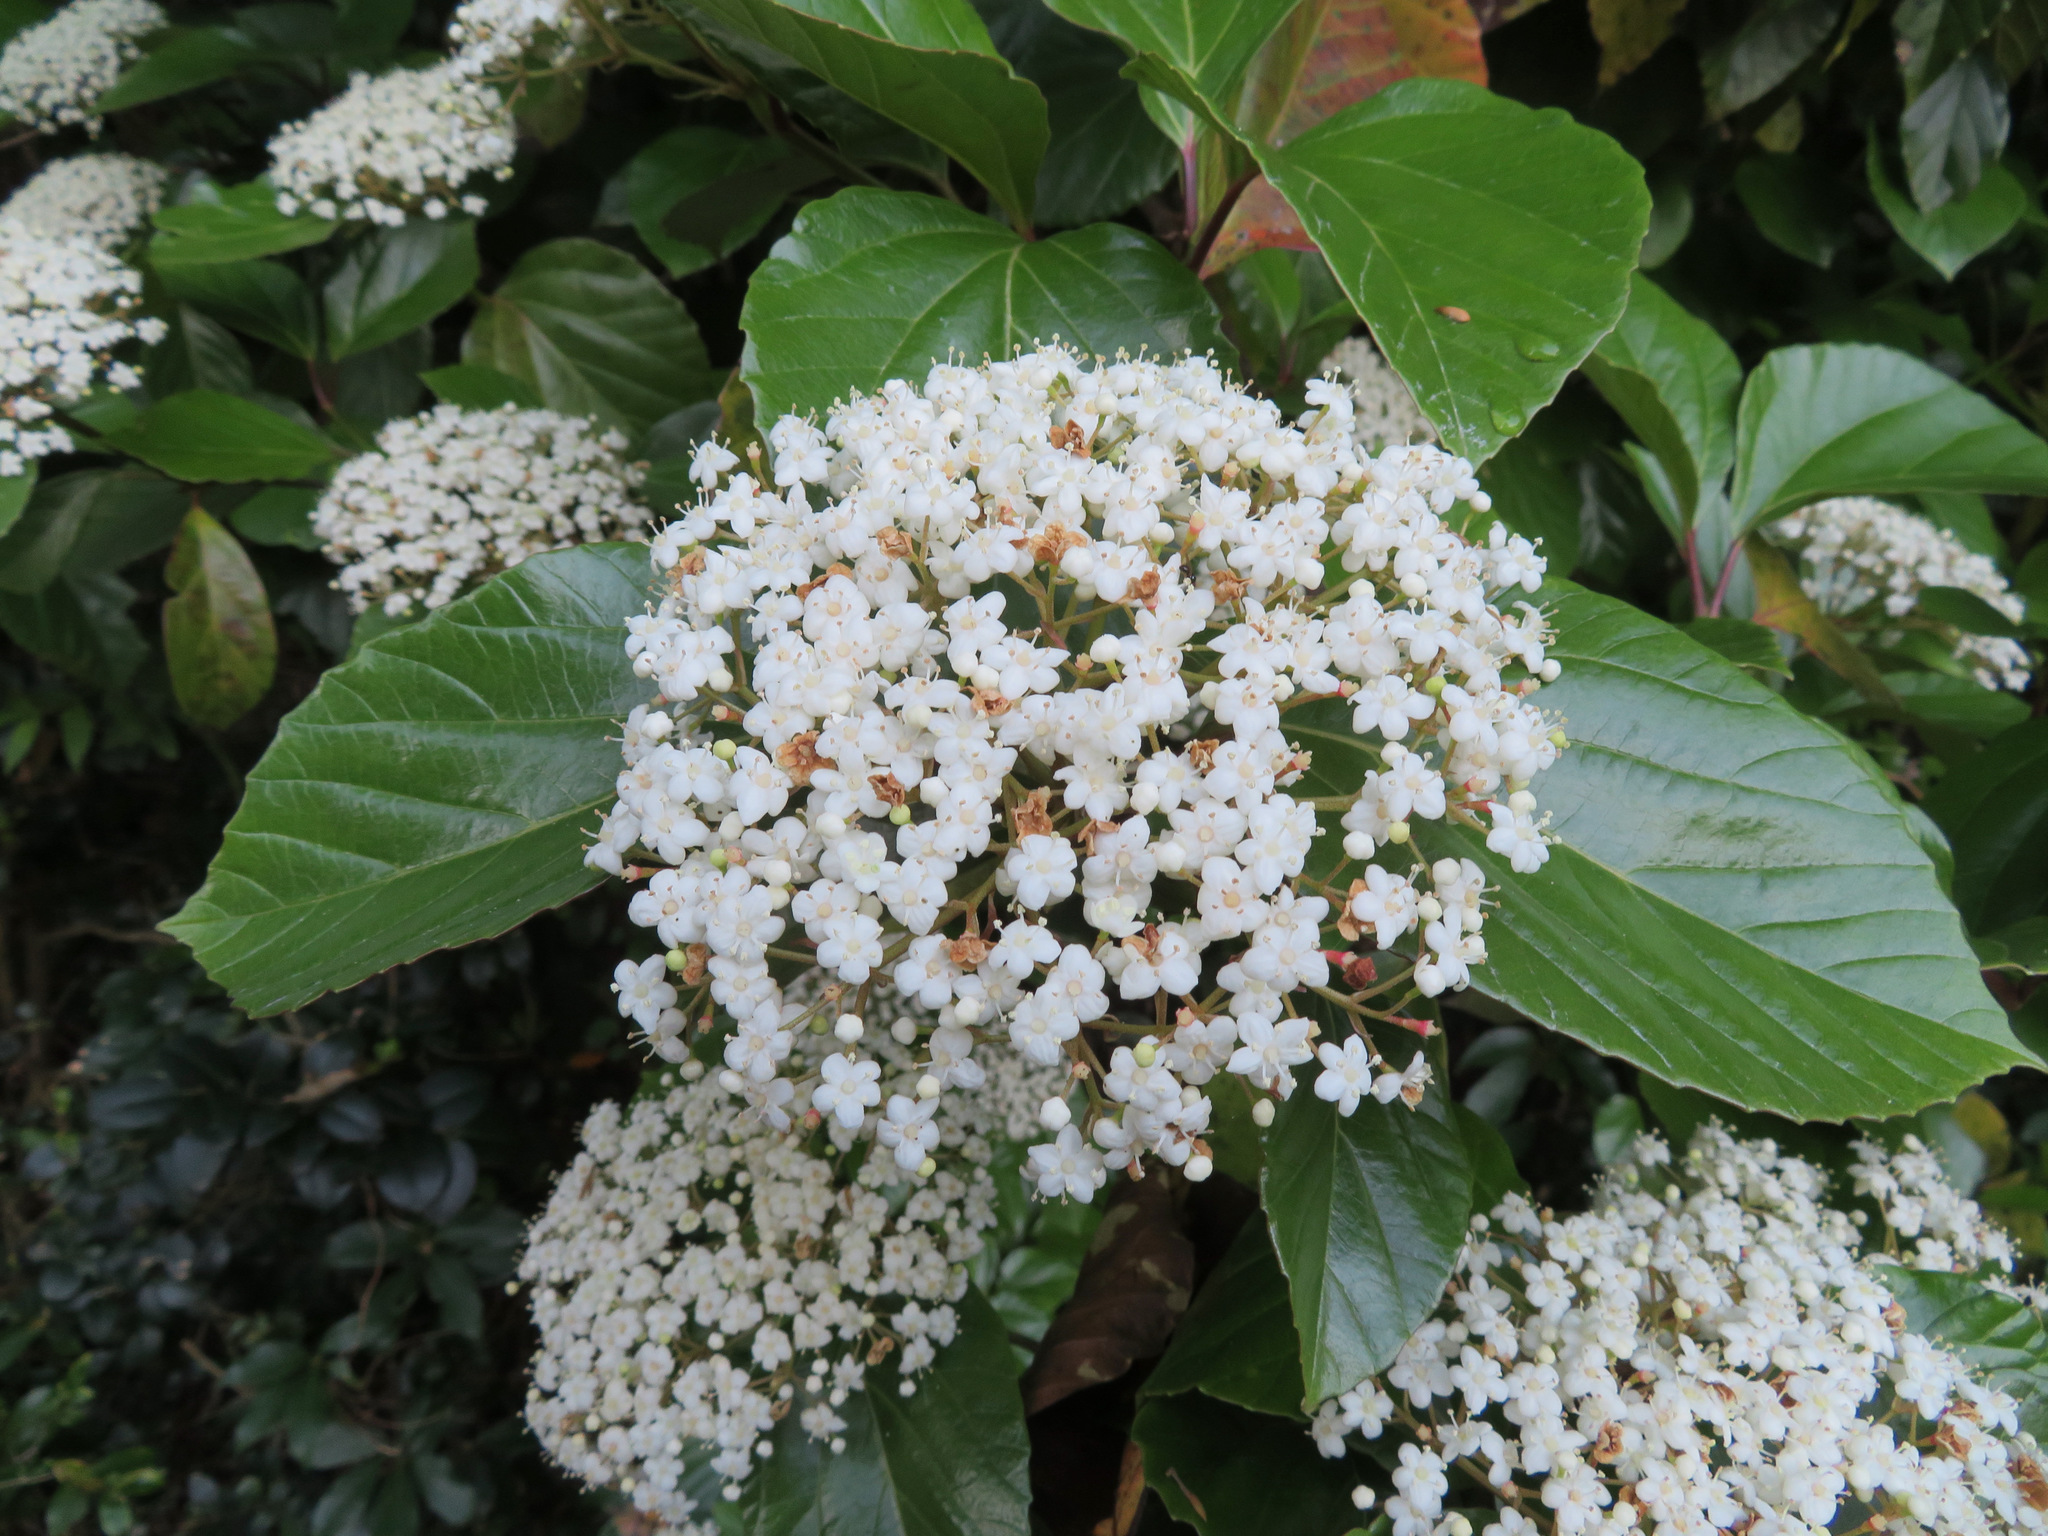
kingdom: Plantae
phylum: Tracheophyta
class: Magnoliopsida
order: Dipsacales
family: Viburnaceae
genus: Viburnum
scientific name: Viburnum japonicum
